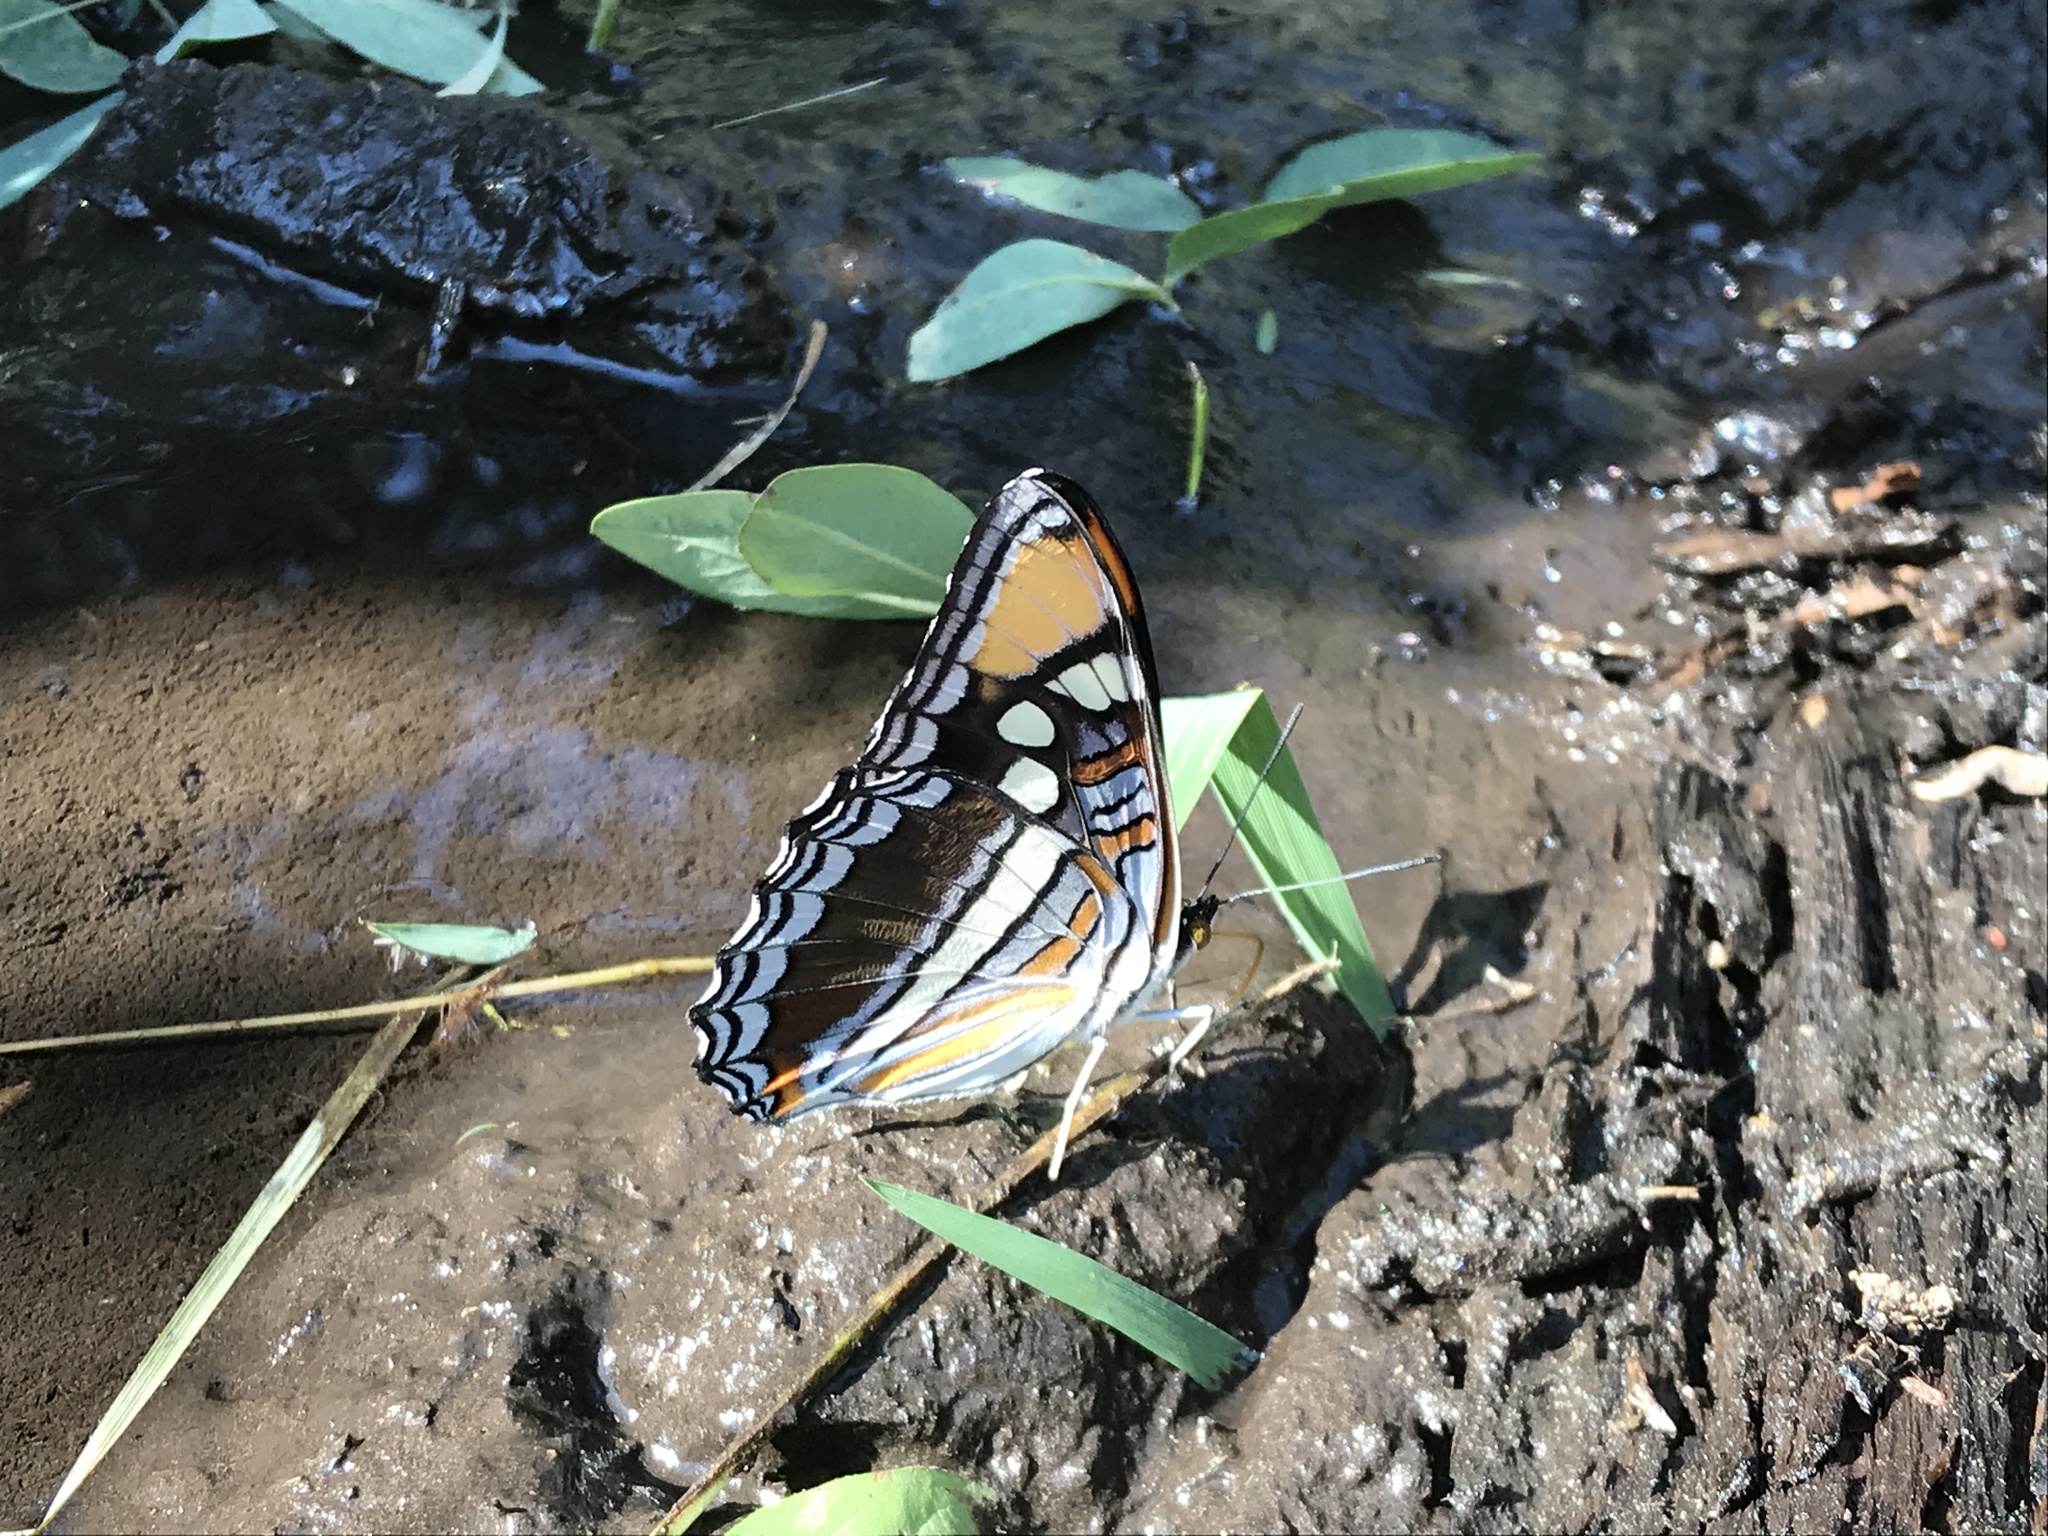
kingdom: Animalia
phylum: Arthropoda
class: Insecta
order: Lepidoptera
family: Nymphalidae
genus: Limenitis
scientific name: Limenitis bredowii
